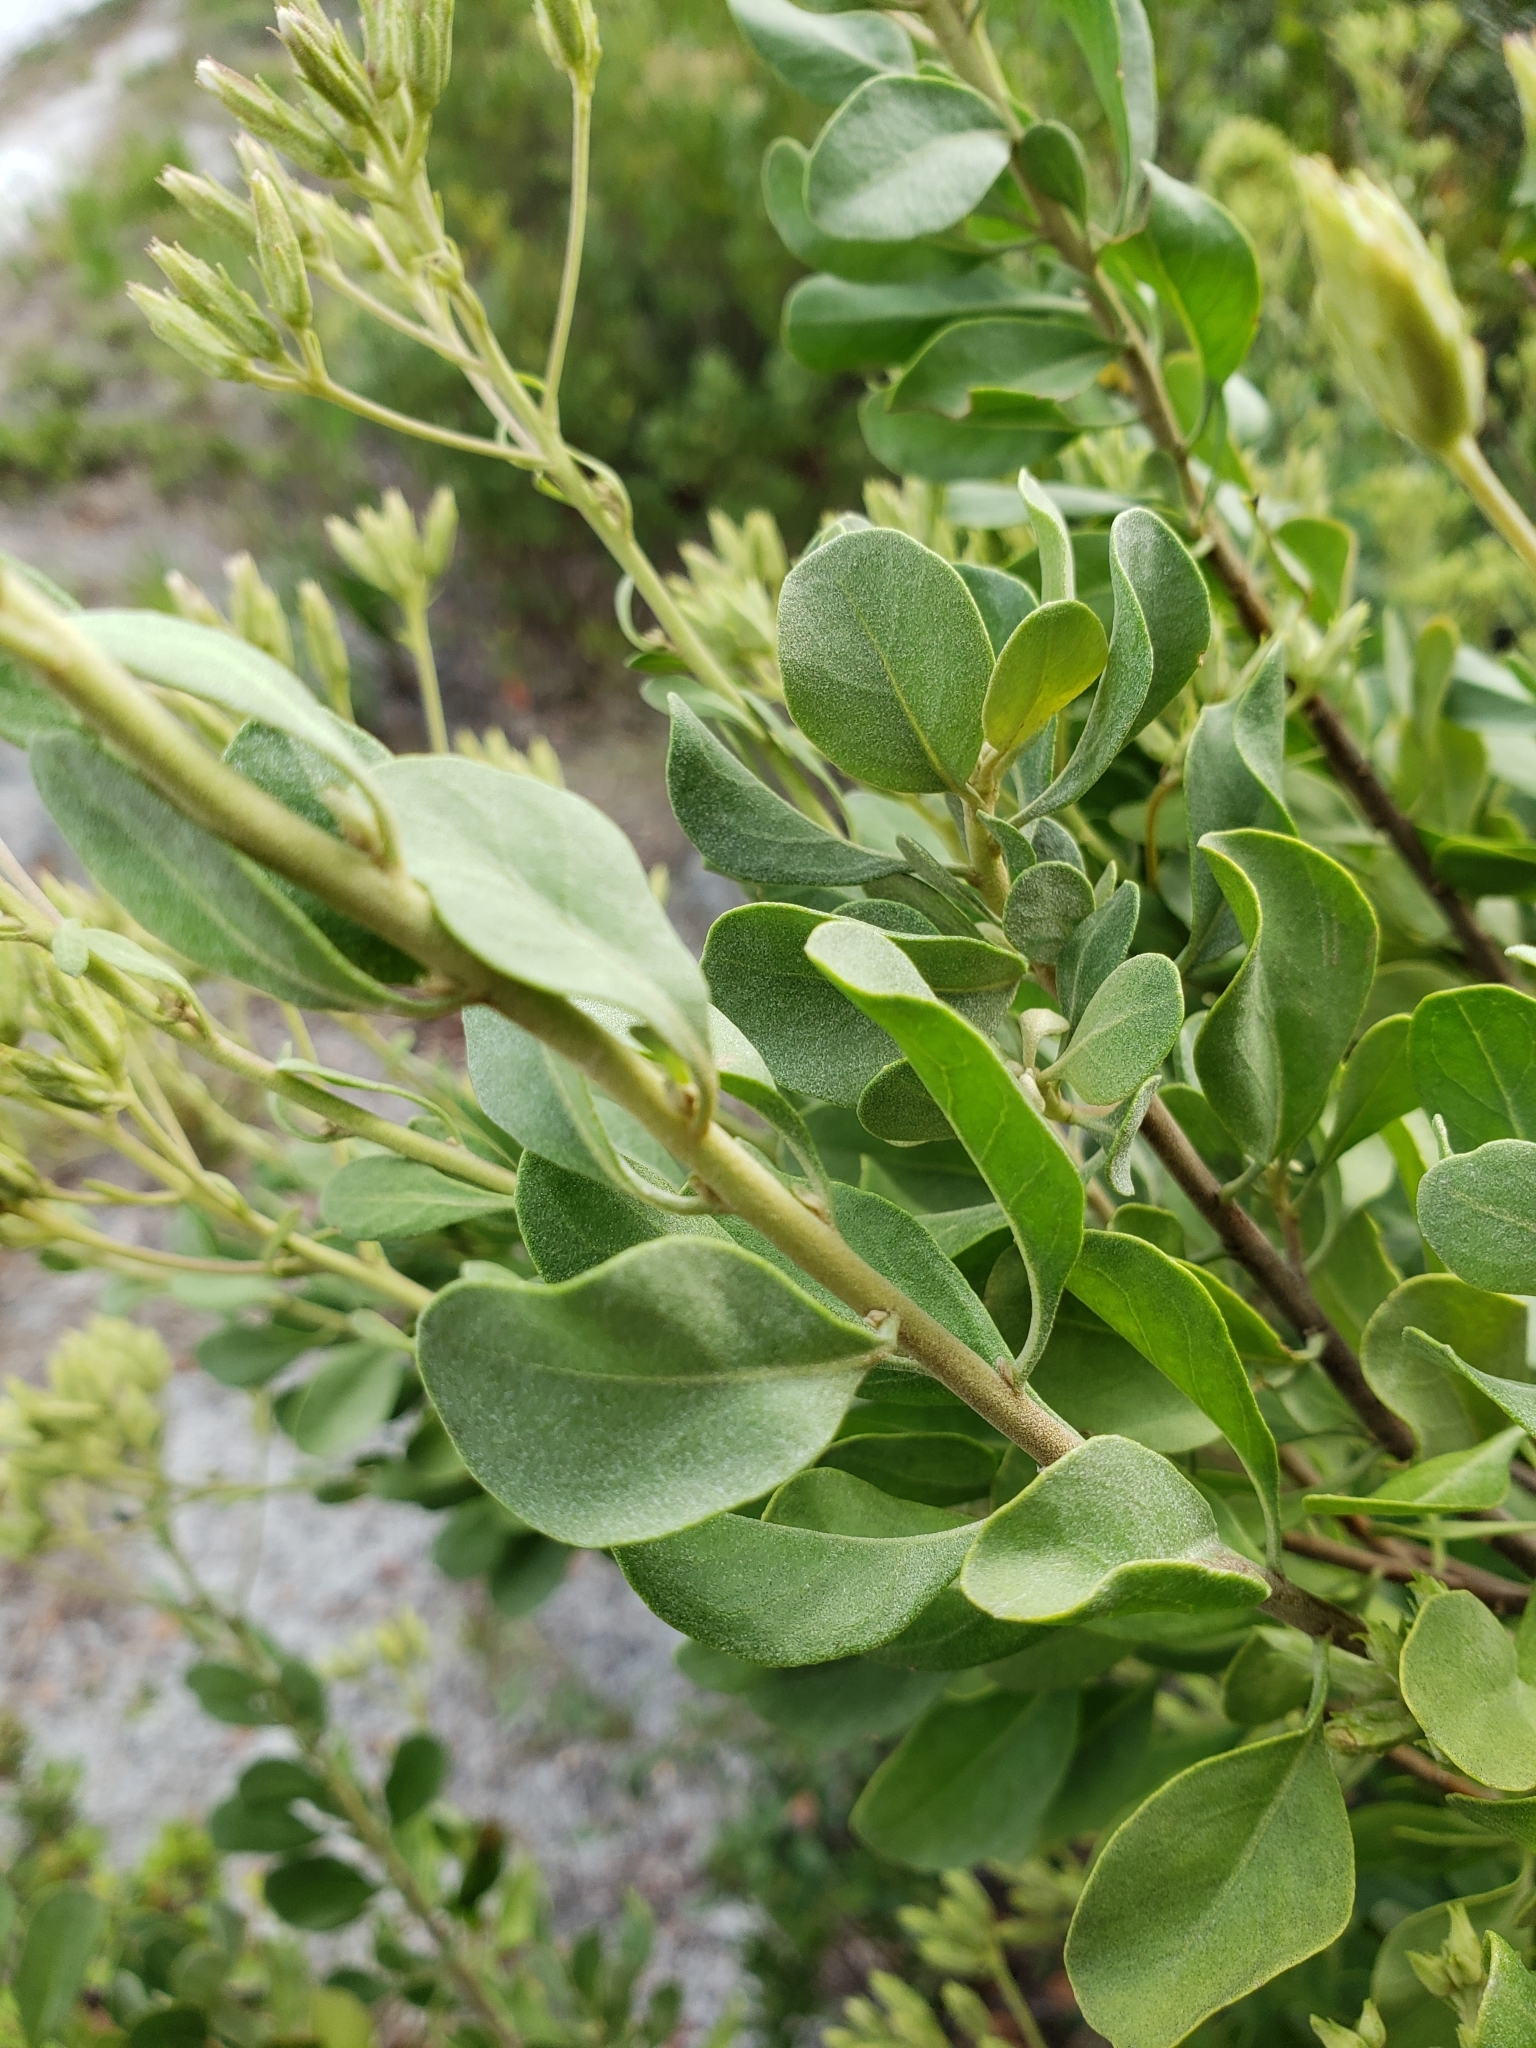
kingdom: Plantae
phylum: Tracheophyta
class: Magnoliopsida
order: Asterales
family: Asteraceae
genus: Garberia
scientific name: Garberia heterophylla
